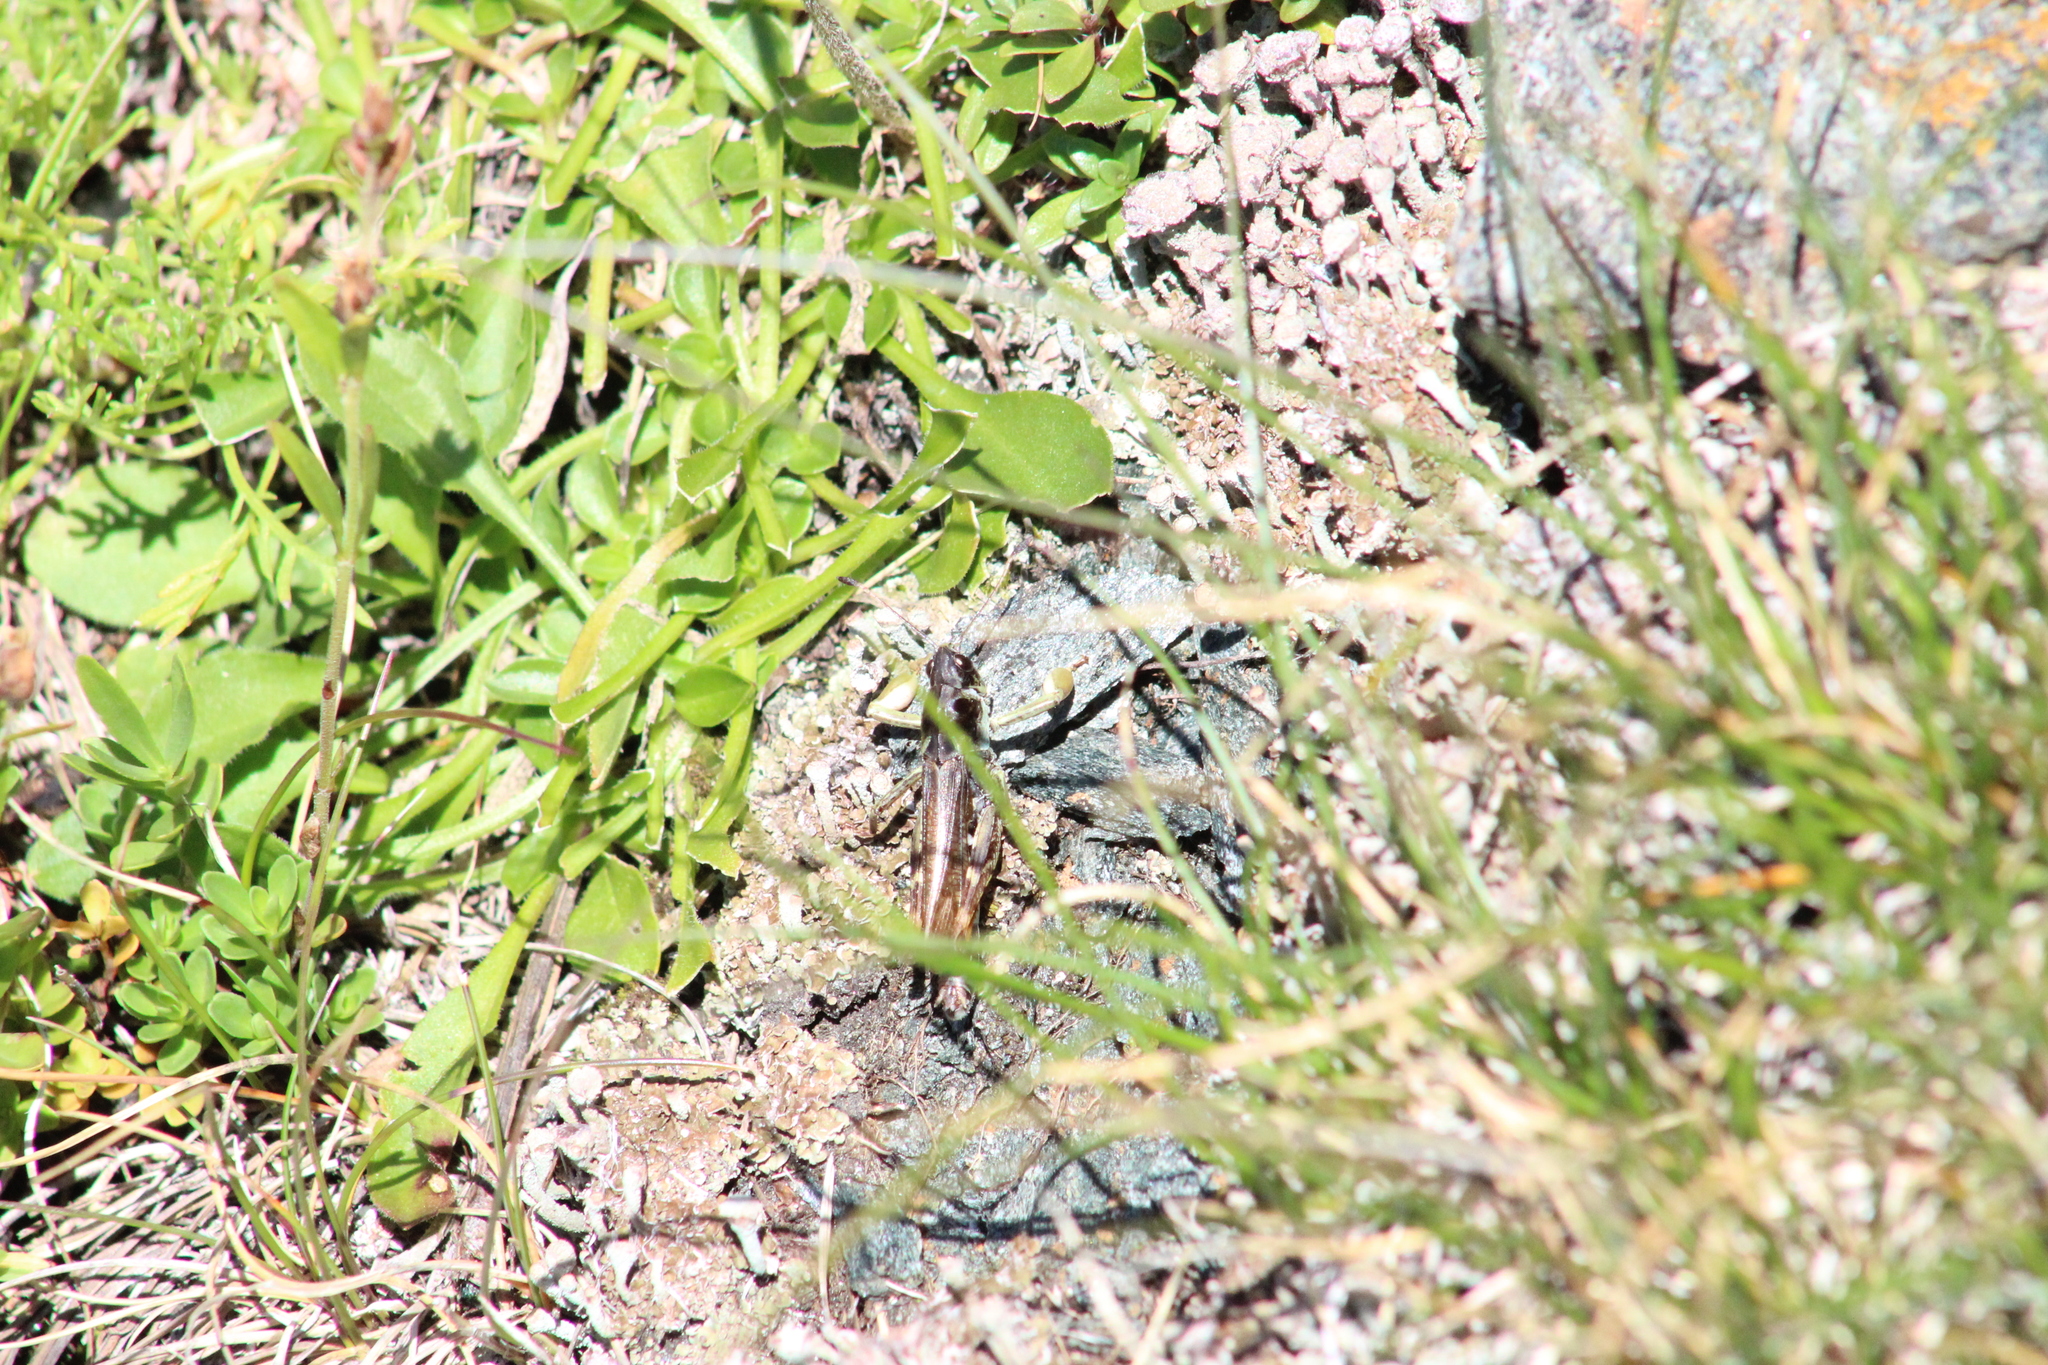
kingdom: Animalia
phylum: Arthropoda
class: Insecta
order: Orthoptera
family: Acrididae
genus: Gomphocerus
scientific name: Gomphocerus sibiricus
